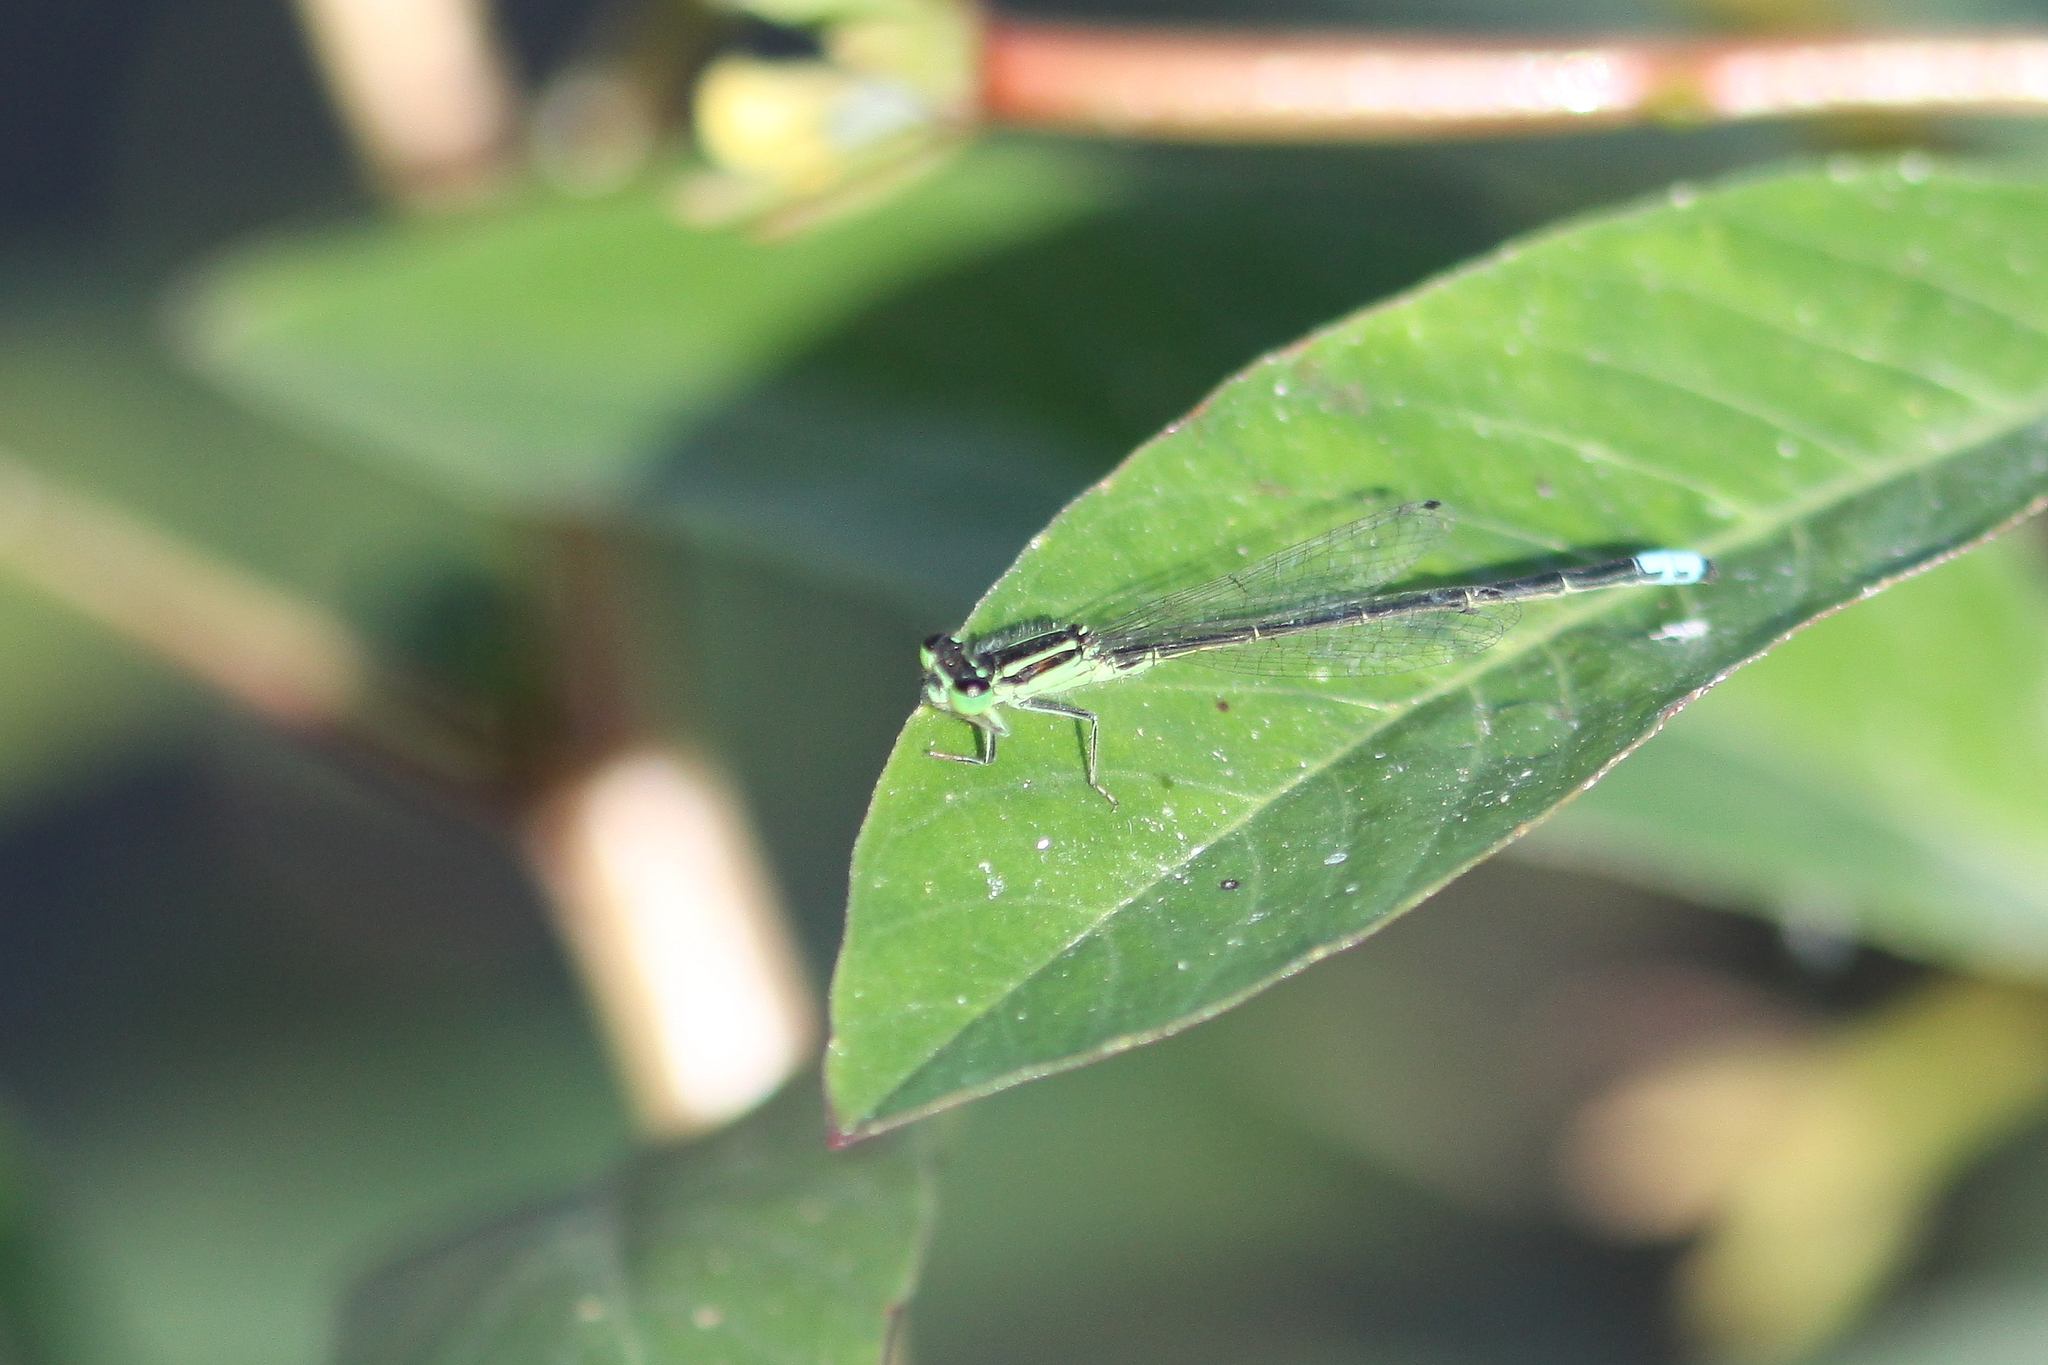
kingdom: Animalia
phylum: Arthropoda
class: Insecta
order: Odonata
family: Coenagrionidae
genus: Ischnura
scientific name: Ischnura verticalis
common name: Eastern forktail
